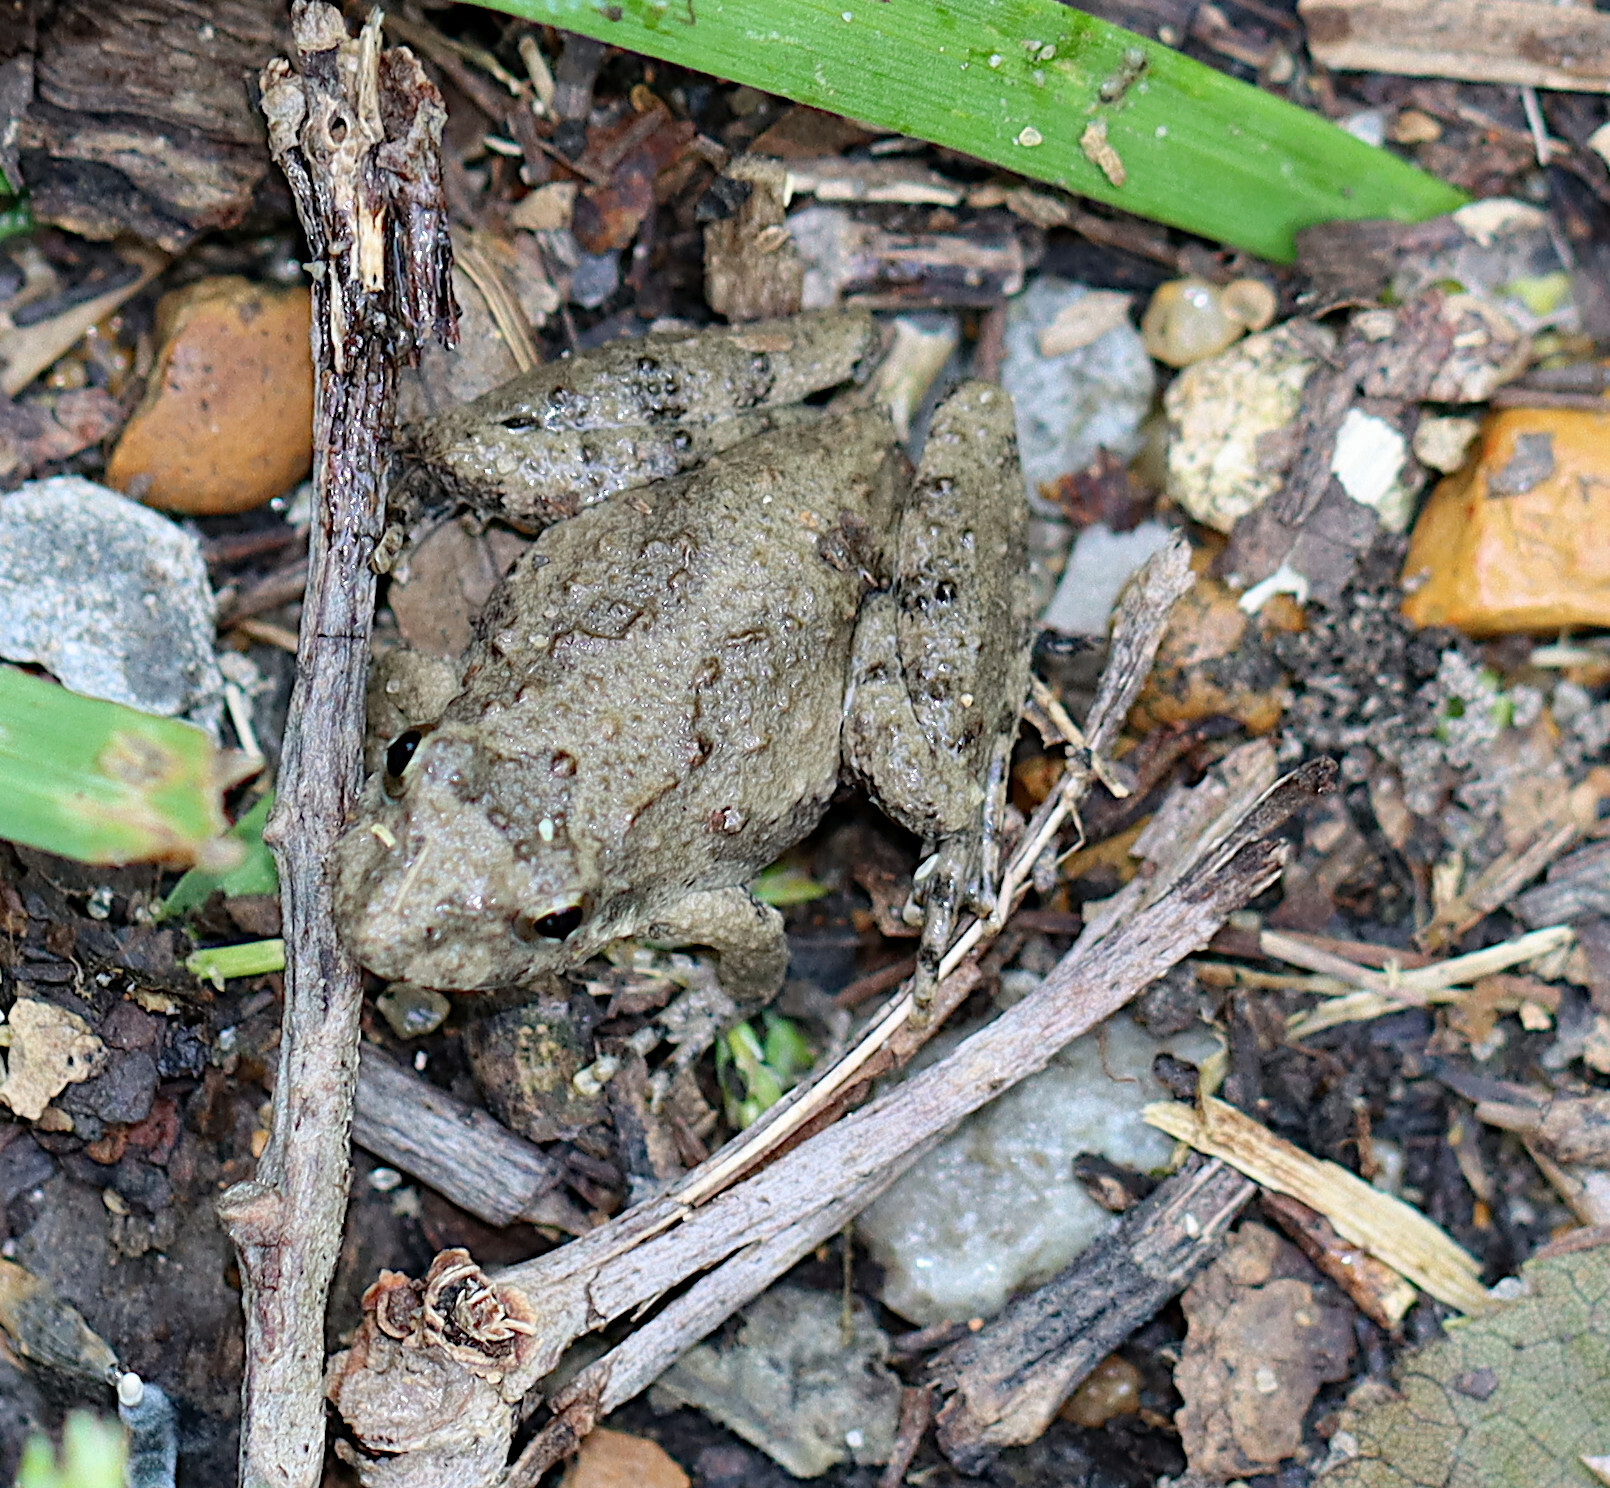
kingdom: Animalia
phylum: Chordata
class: Amphibia
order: Anura
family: Hylidae
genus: Acris
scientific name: Acris blanchardi
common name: Blanchard's cricket frog
